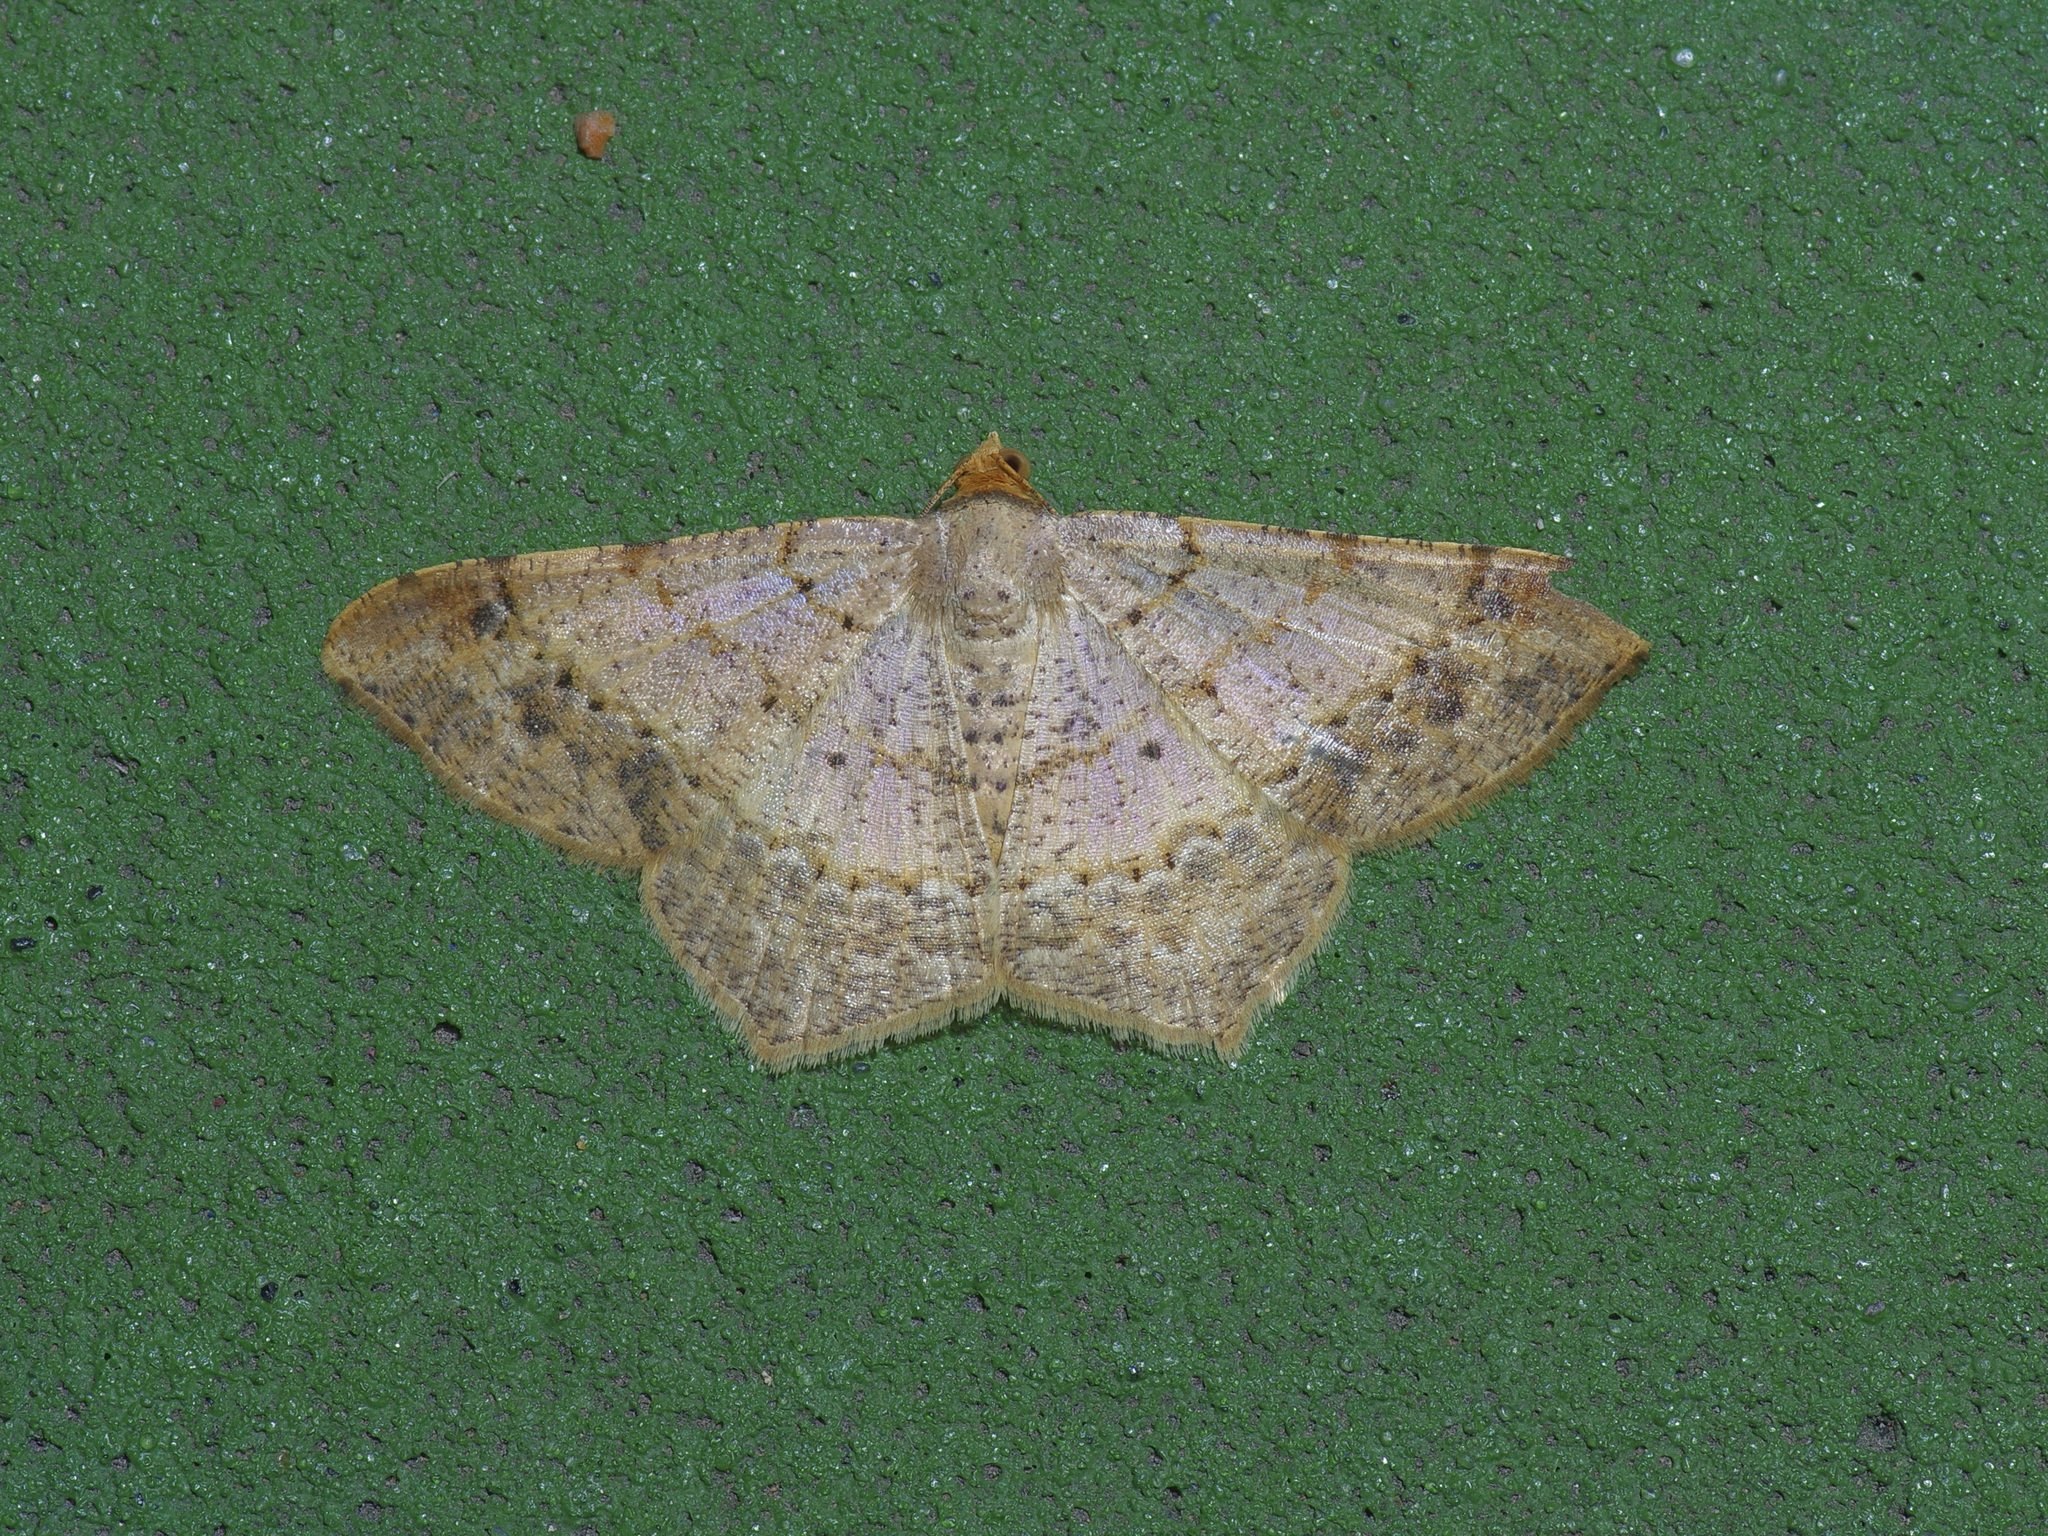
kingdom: Animalia
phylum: Arthropoda
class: Insecta
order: Lepidoptera
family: Geometridae
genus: Macaria
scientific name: Macaria abydata
